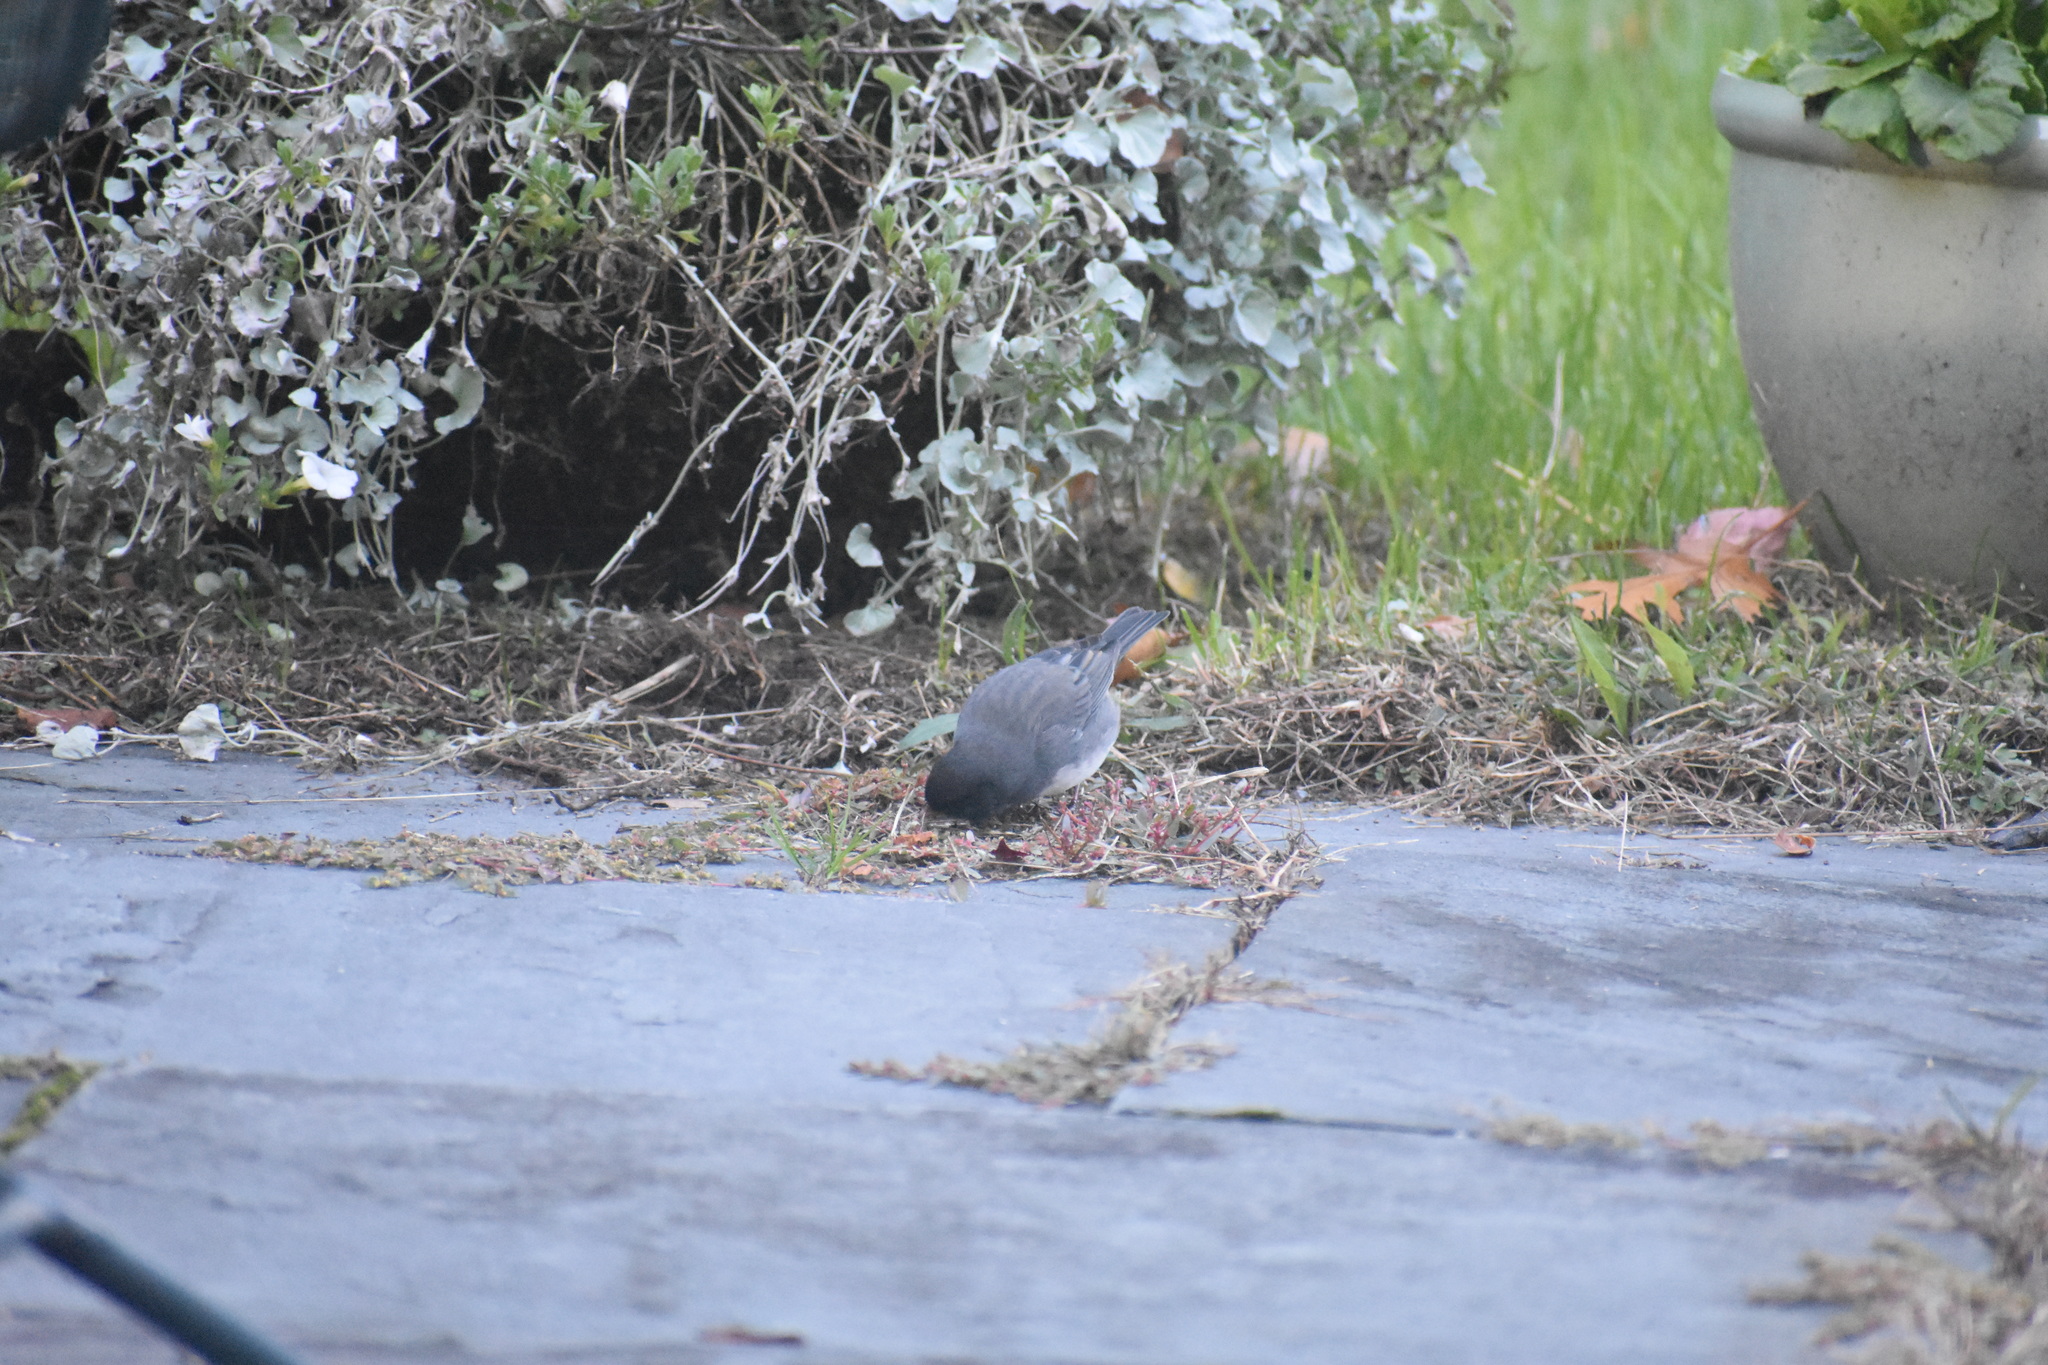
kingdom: Animalia
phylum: Chordata
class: Aves
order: Passeriformes
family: Passerellidae
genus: Junco
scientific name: Junco hyemalis
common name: Dark-eyed junco
